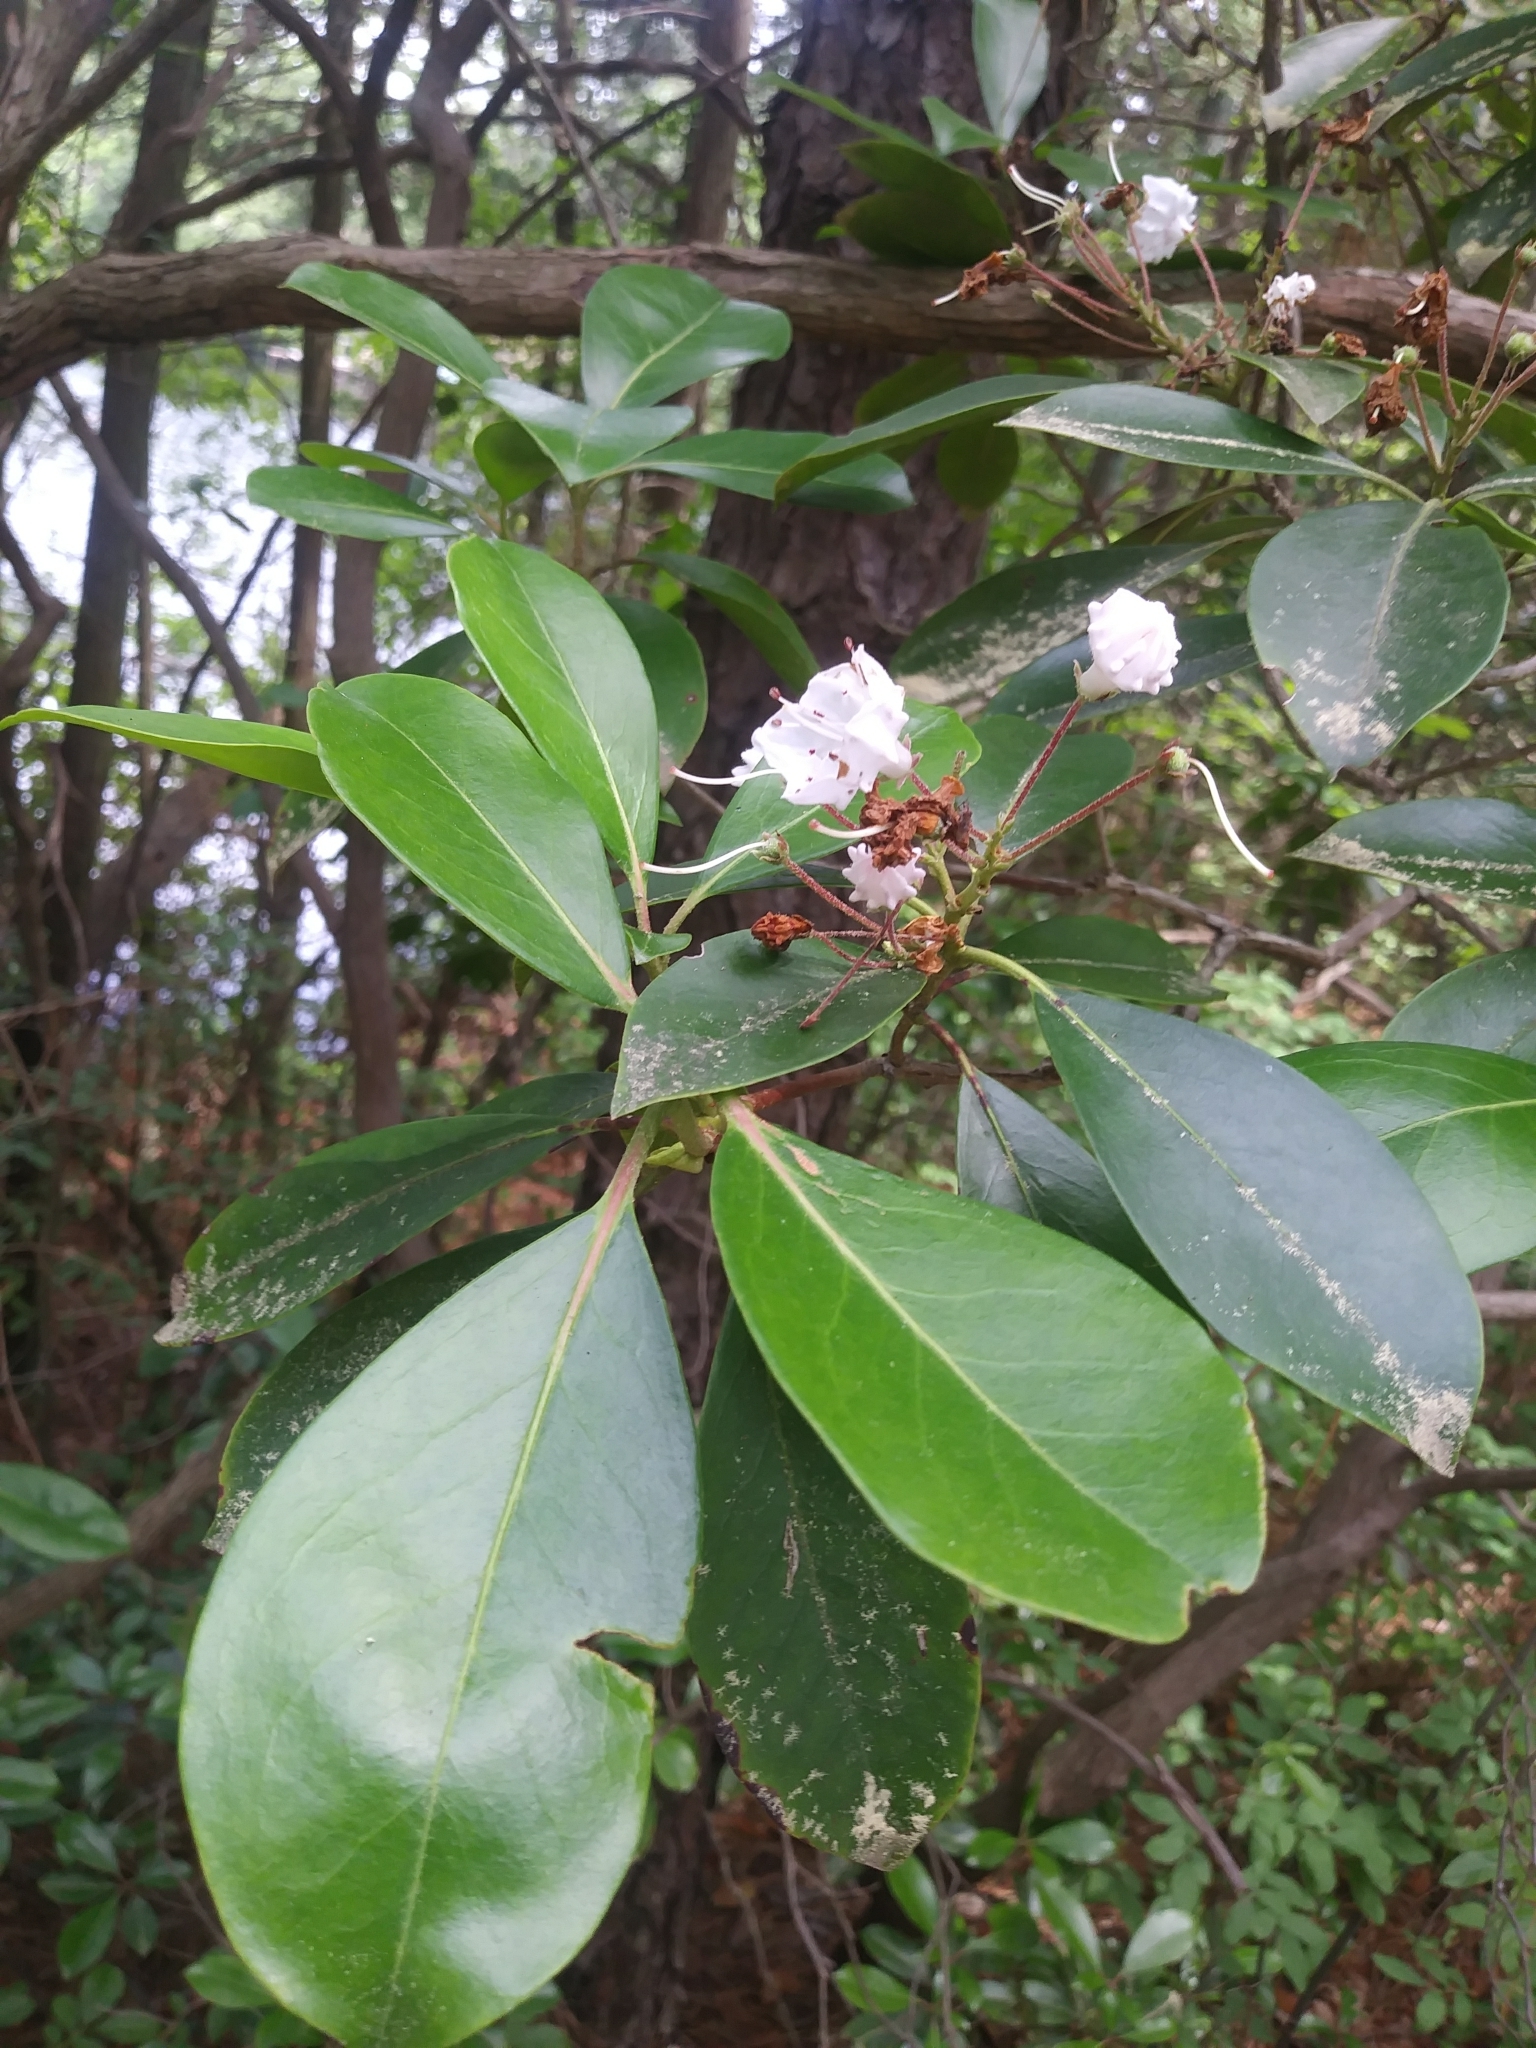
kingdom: Plantae
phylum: Tracheophyta
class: Magnoliopsida
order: Ericales
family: Ericaceae
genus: Kalmia
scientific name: Kalmia latifolia
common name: Mountain-laurel
